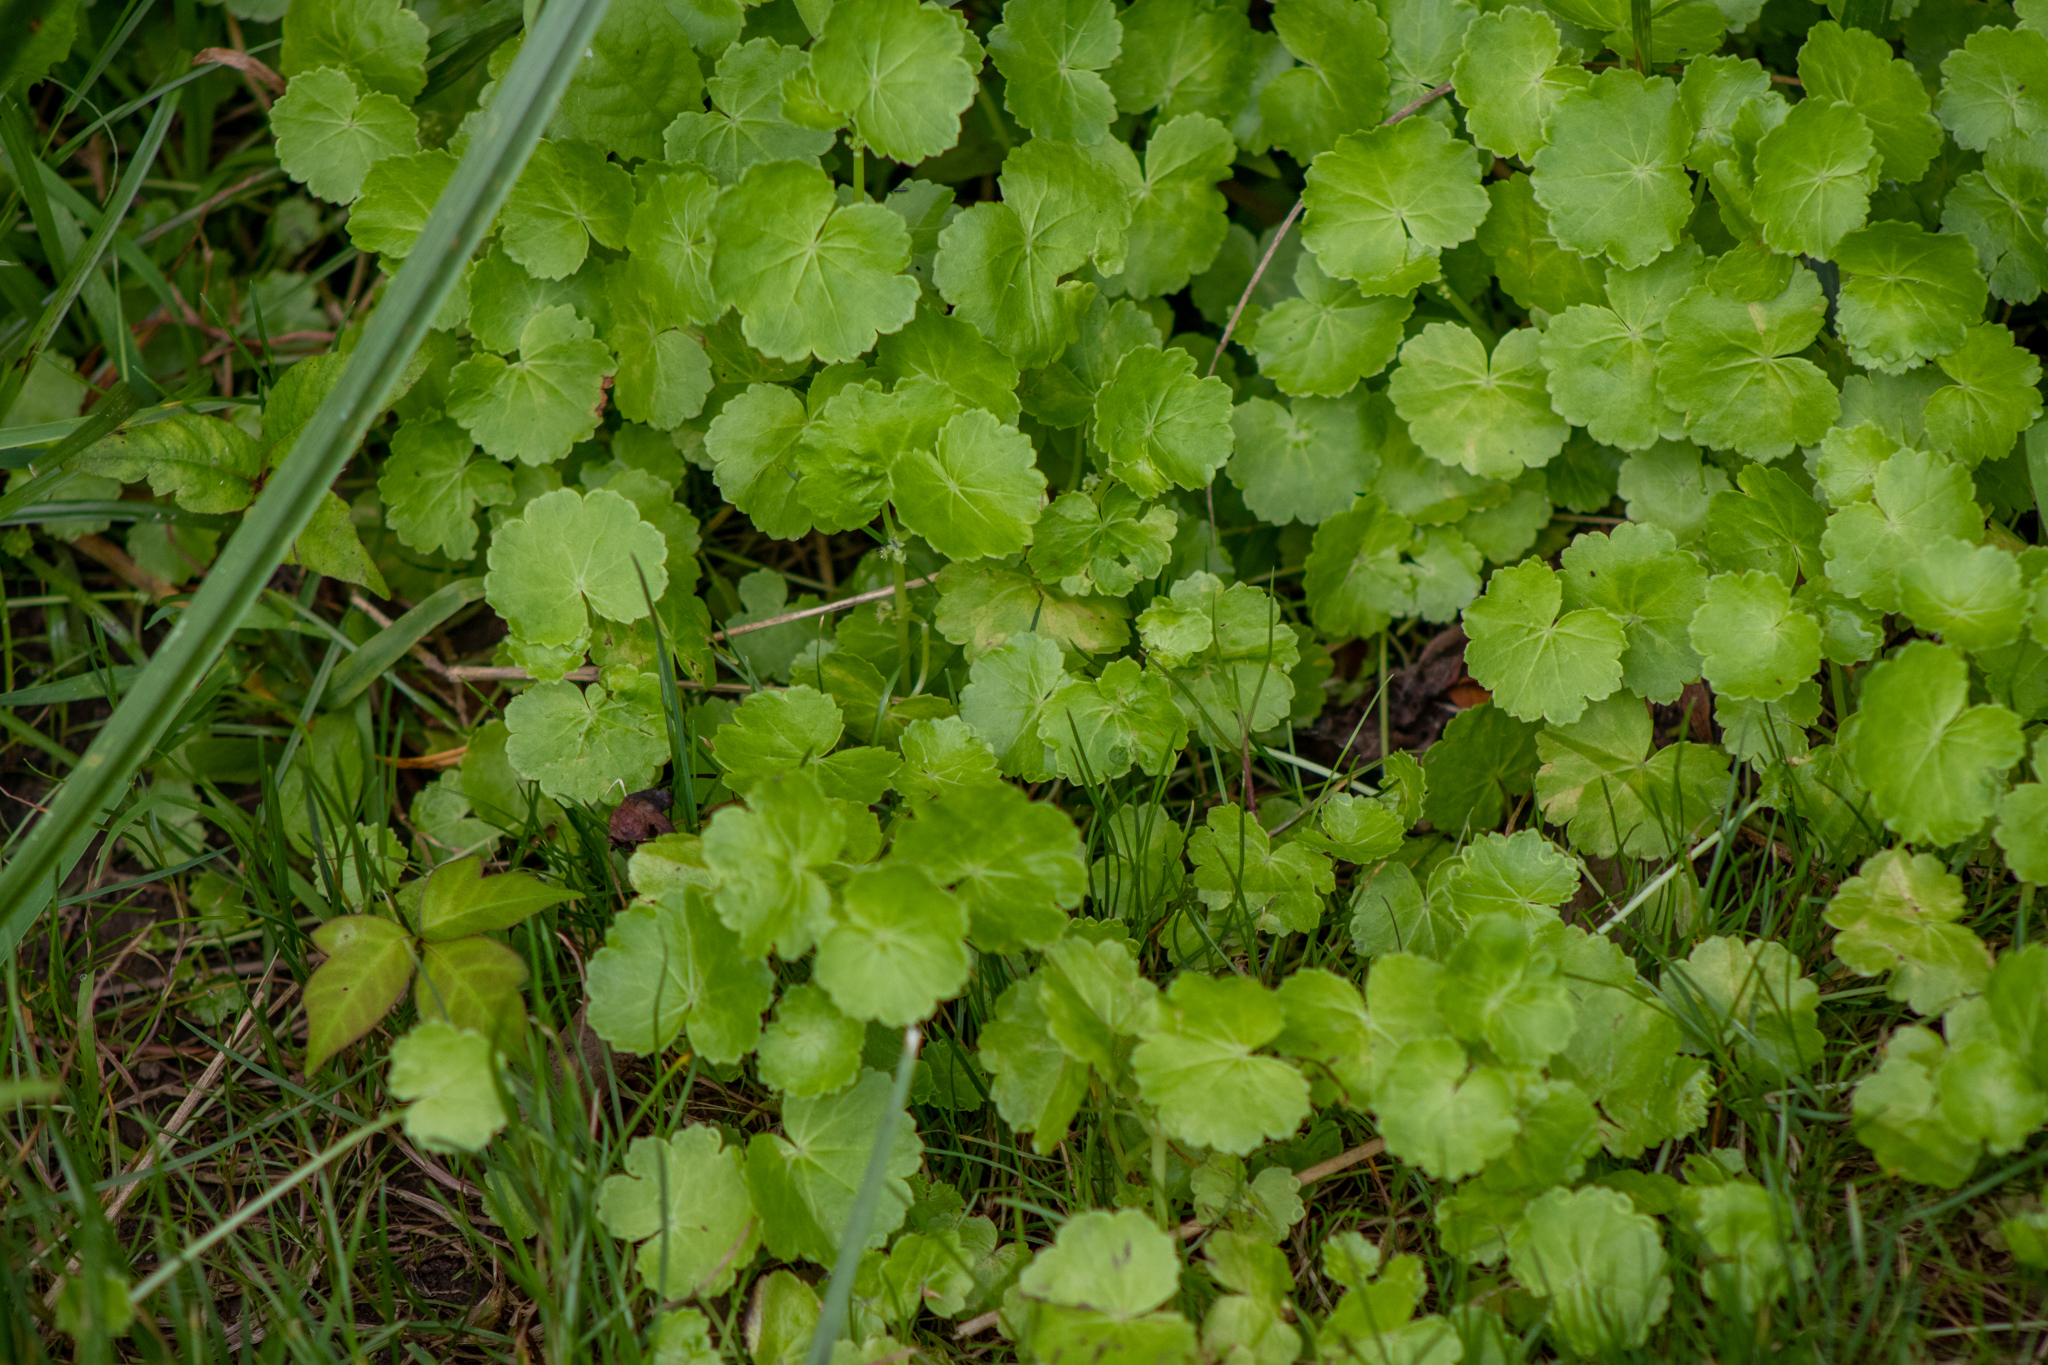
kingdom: Plantae
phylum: Tracheophyta
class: Magnoliopsida
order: Apiales
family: Araliaceae
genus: Hydrocotyle
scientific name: Hydrocotyle americana
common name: American water-pennywort
